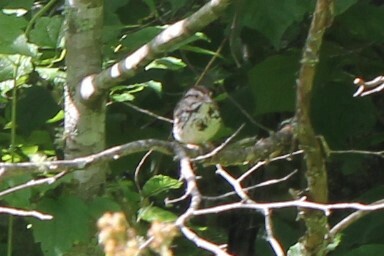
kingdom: Animalia
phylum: Chordata
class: Aves
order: Passeriformes
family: Passerellidae
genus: Melospiza
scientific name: Melospiza melodia
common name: Song sparrow
